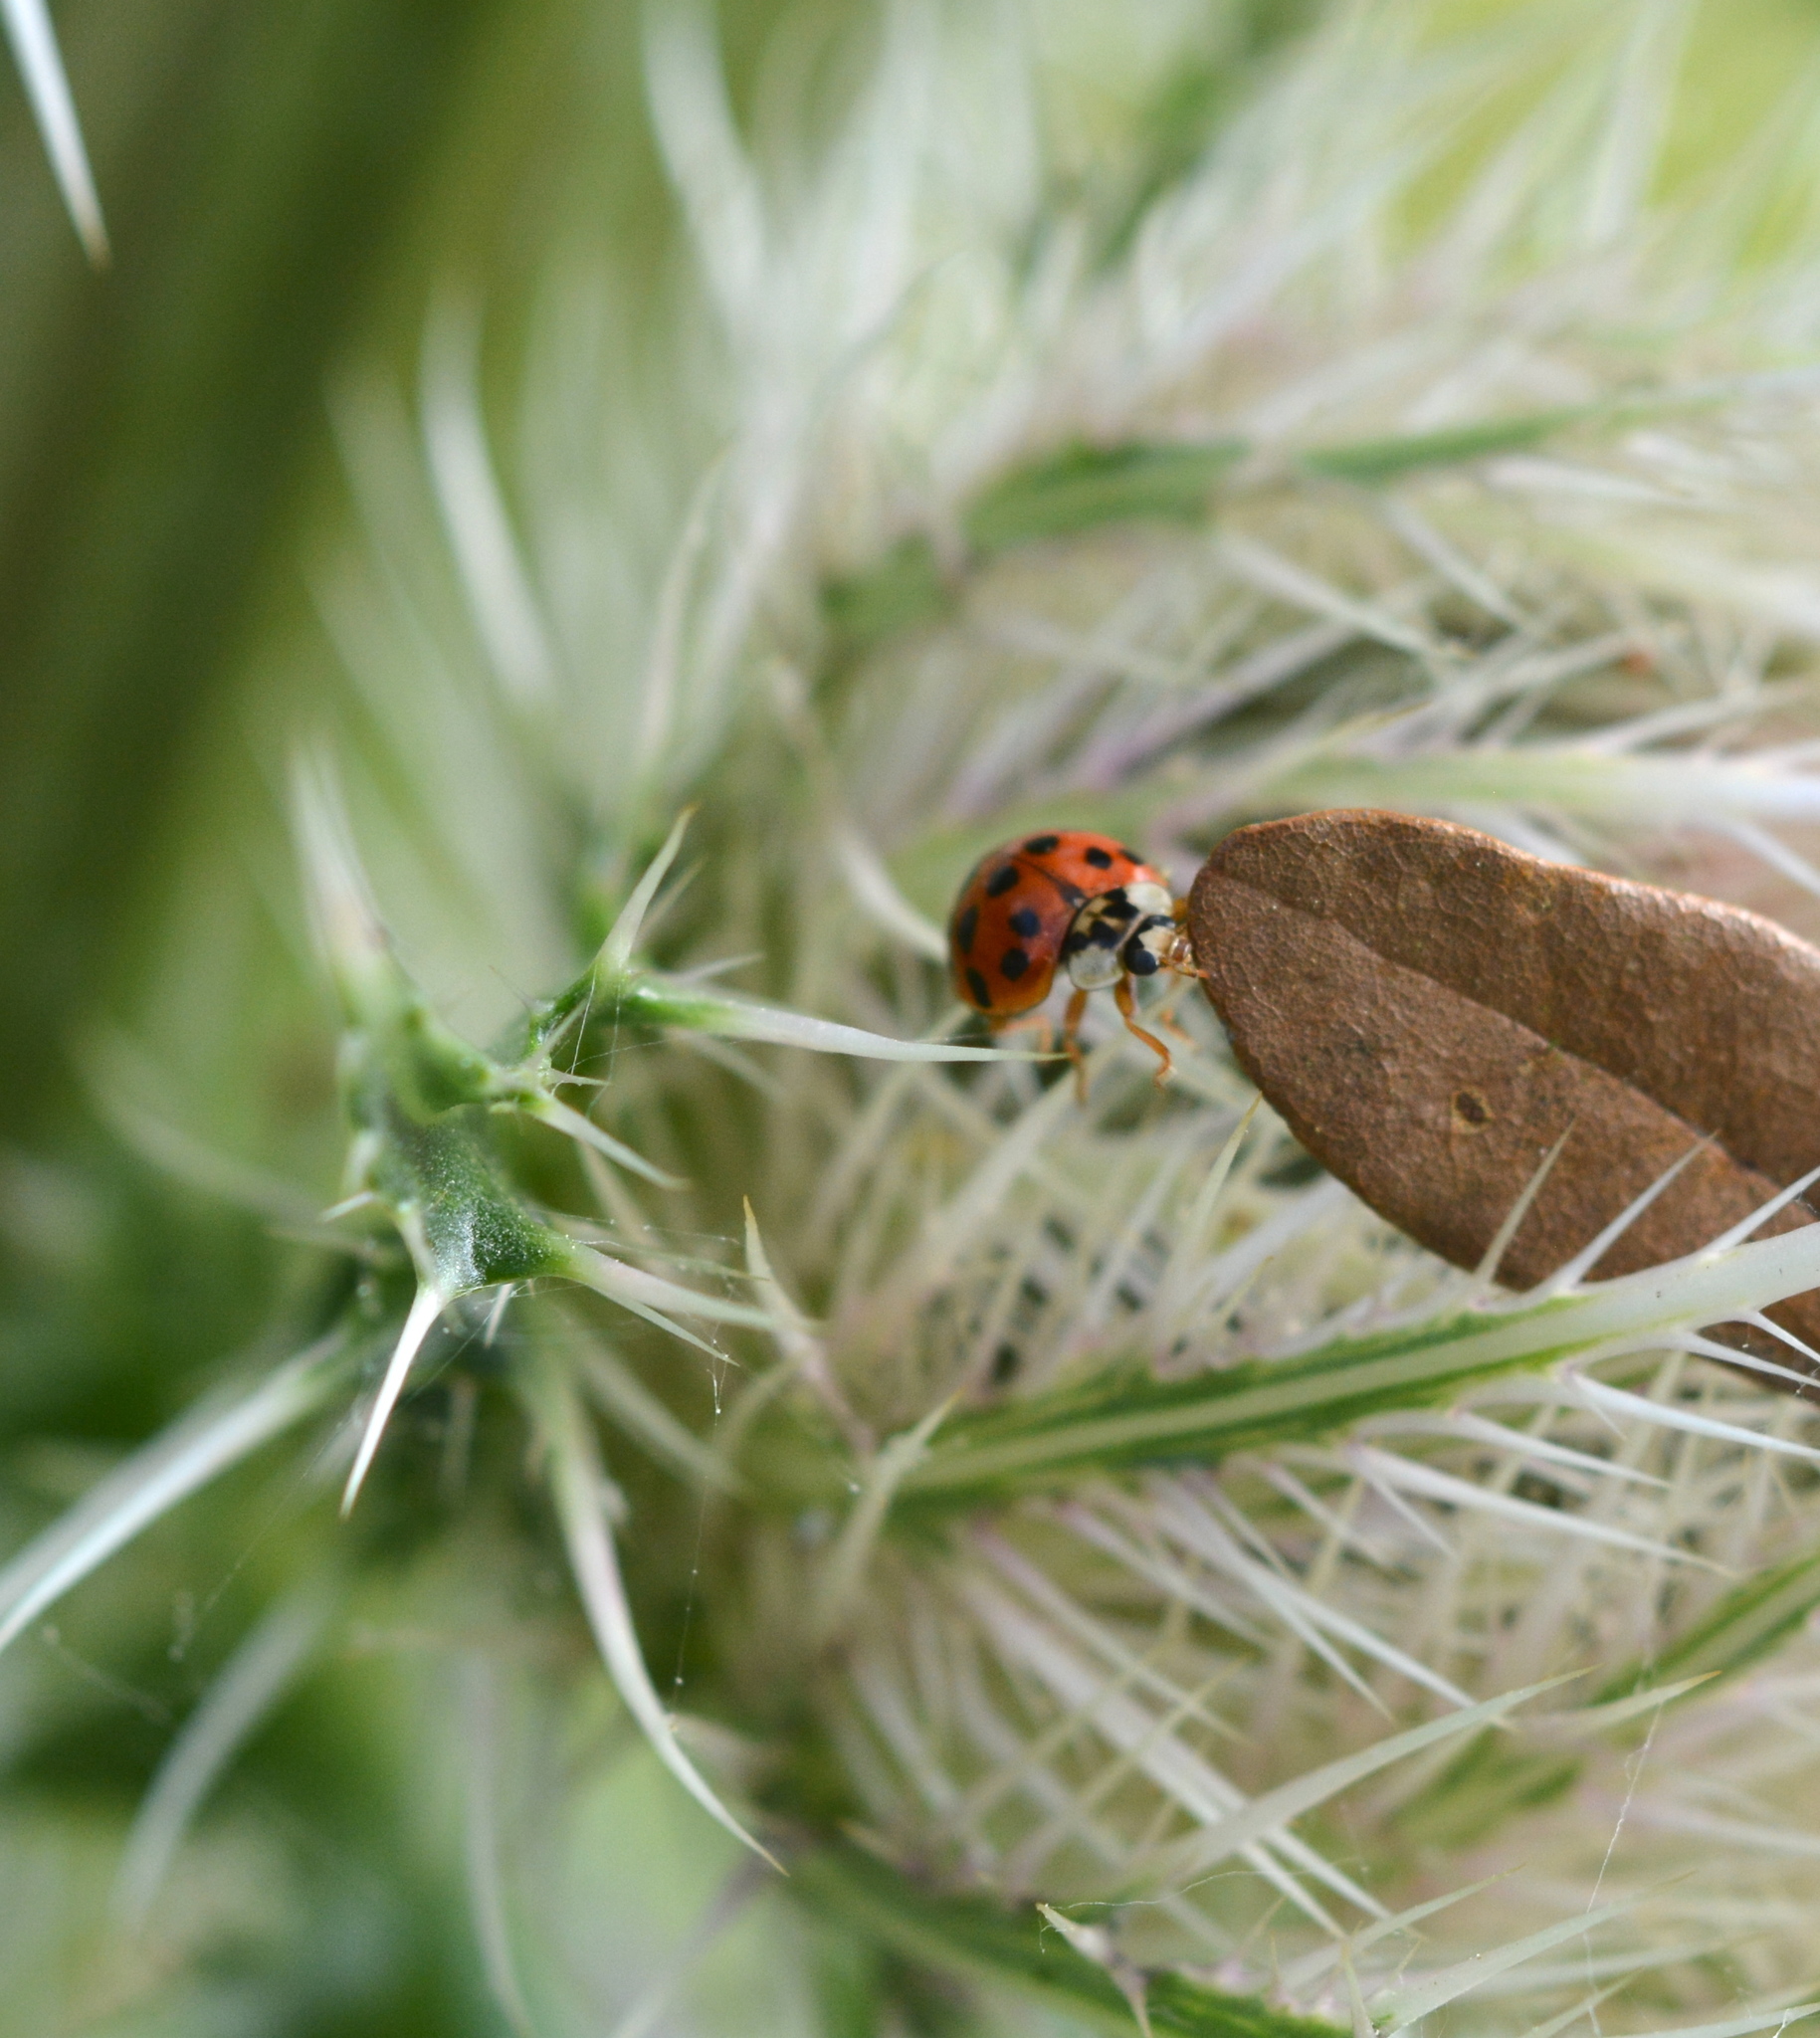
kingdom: Animalia
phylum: Arthropoda
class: Insecta
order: Coleoptera
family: Coccinellidae
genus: Harmonia
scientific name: Harmonia axyridis
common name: Harlequin ladybird
